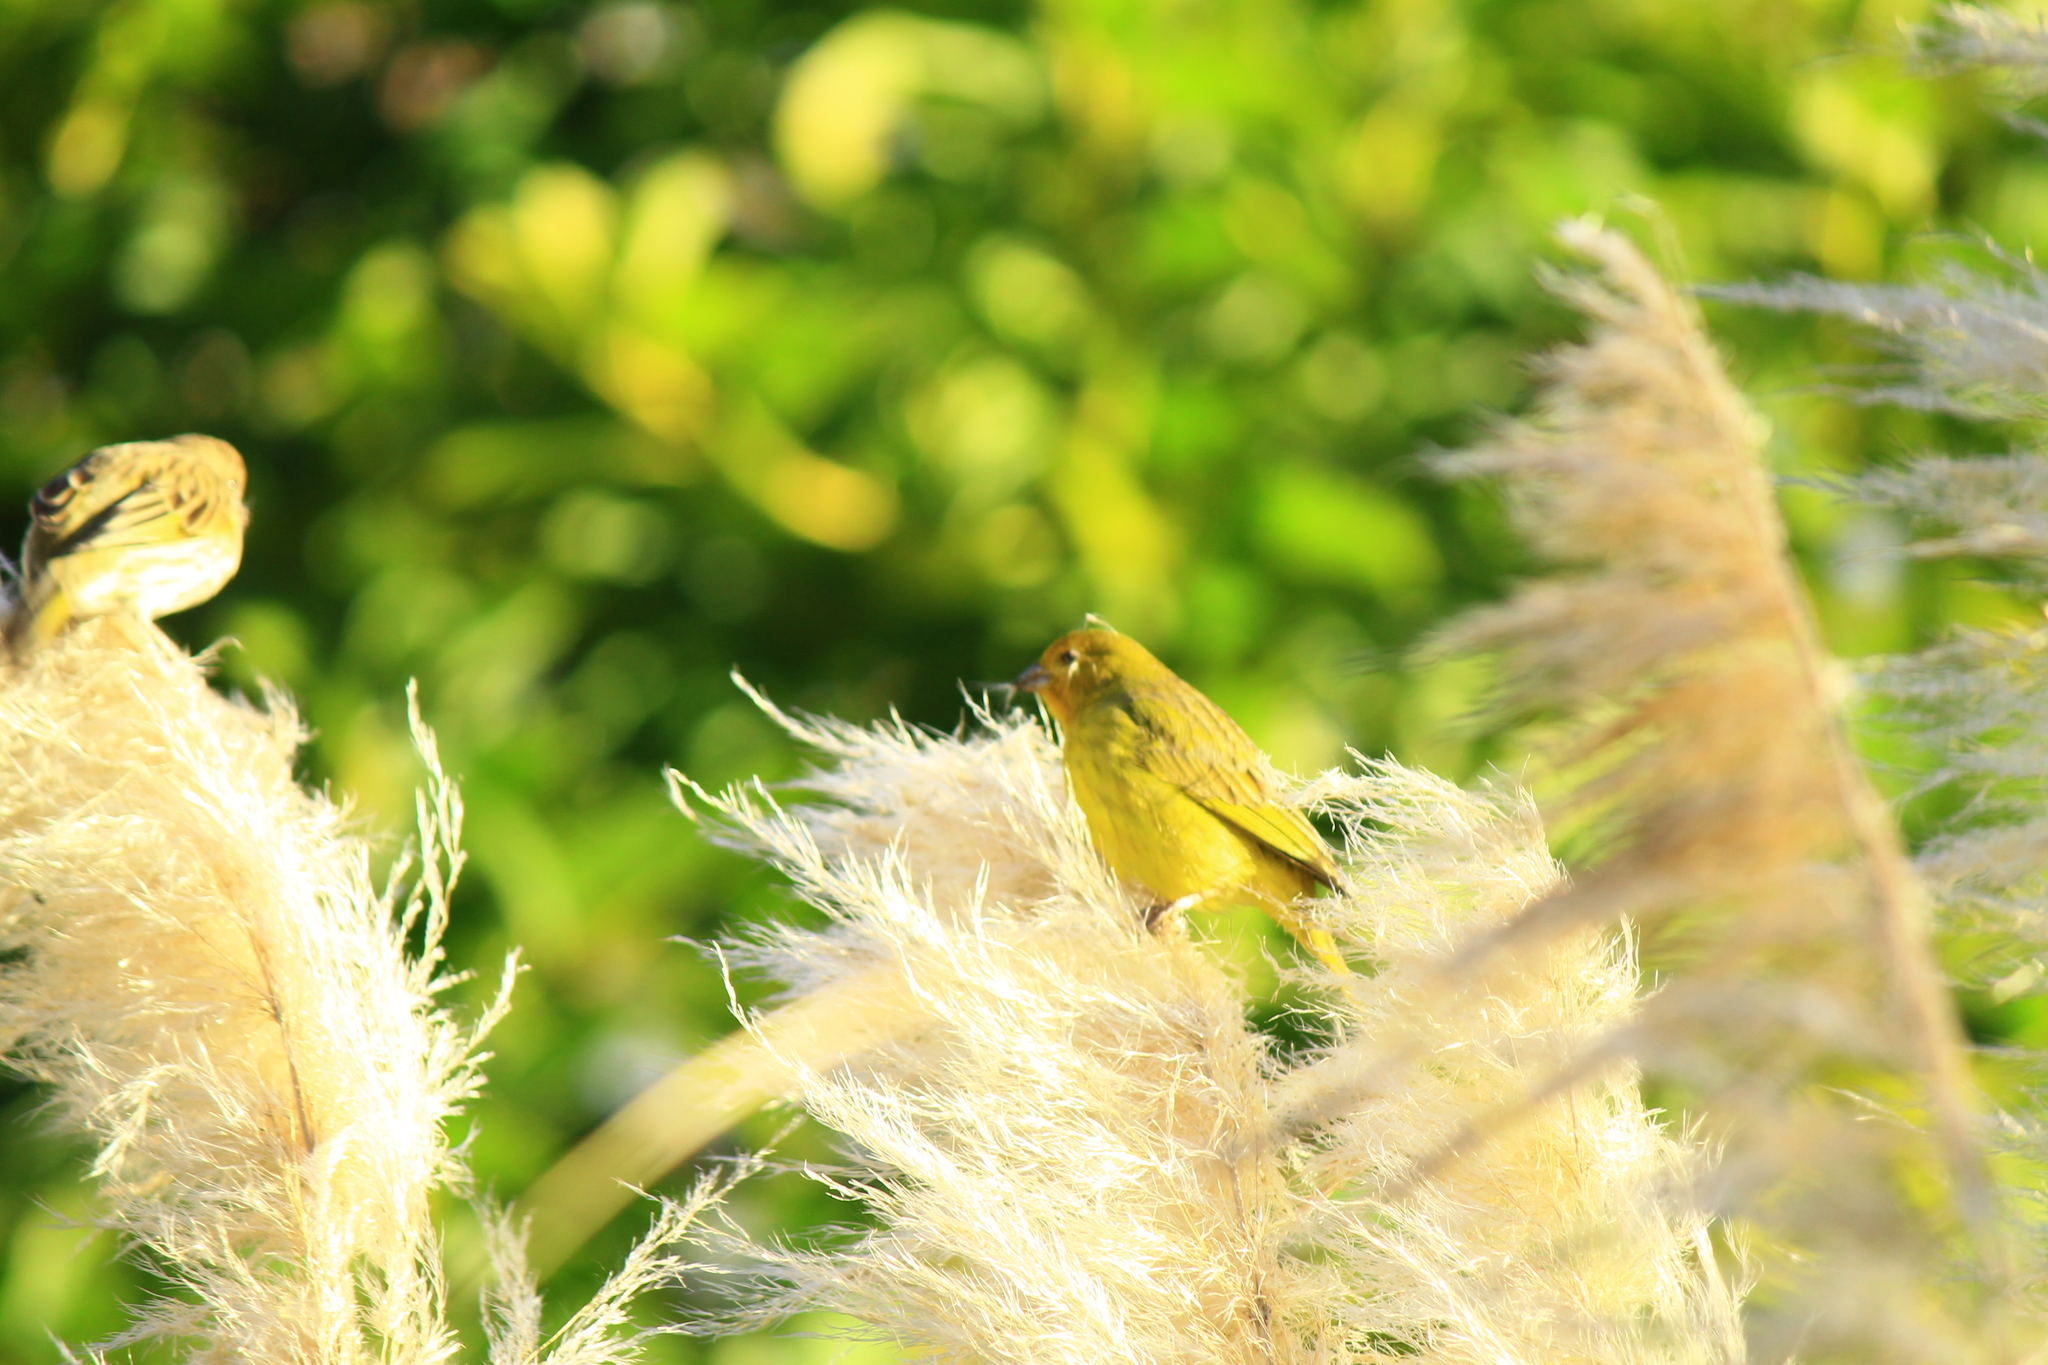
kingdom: Animalia
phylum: Chordata
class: Aves
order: Passeriformes
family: Thraupidae
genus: Sicalis
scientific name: Sicalis flaveola
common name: Saffron finch
